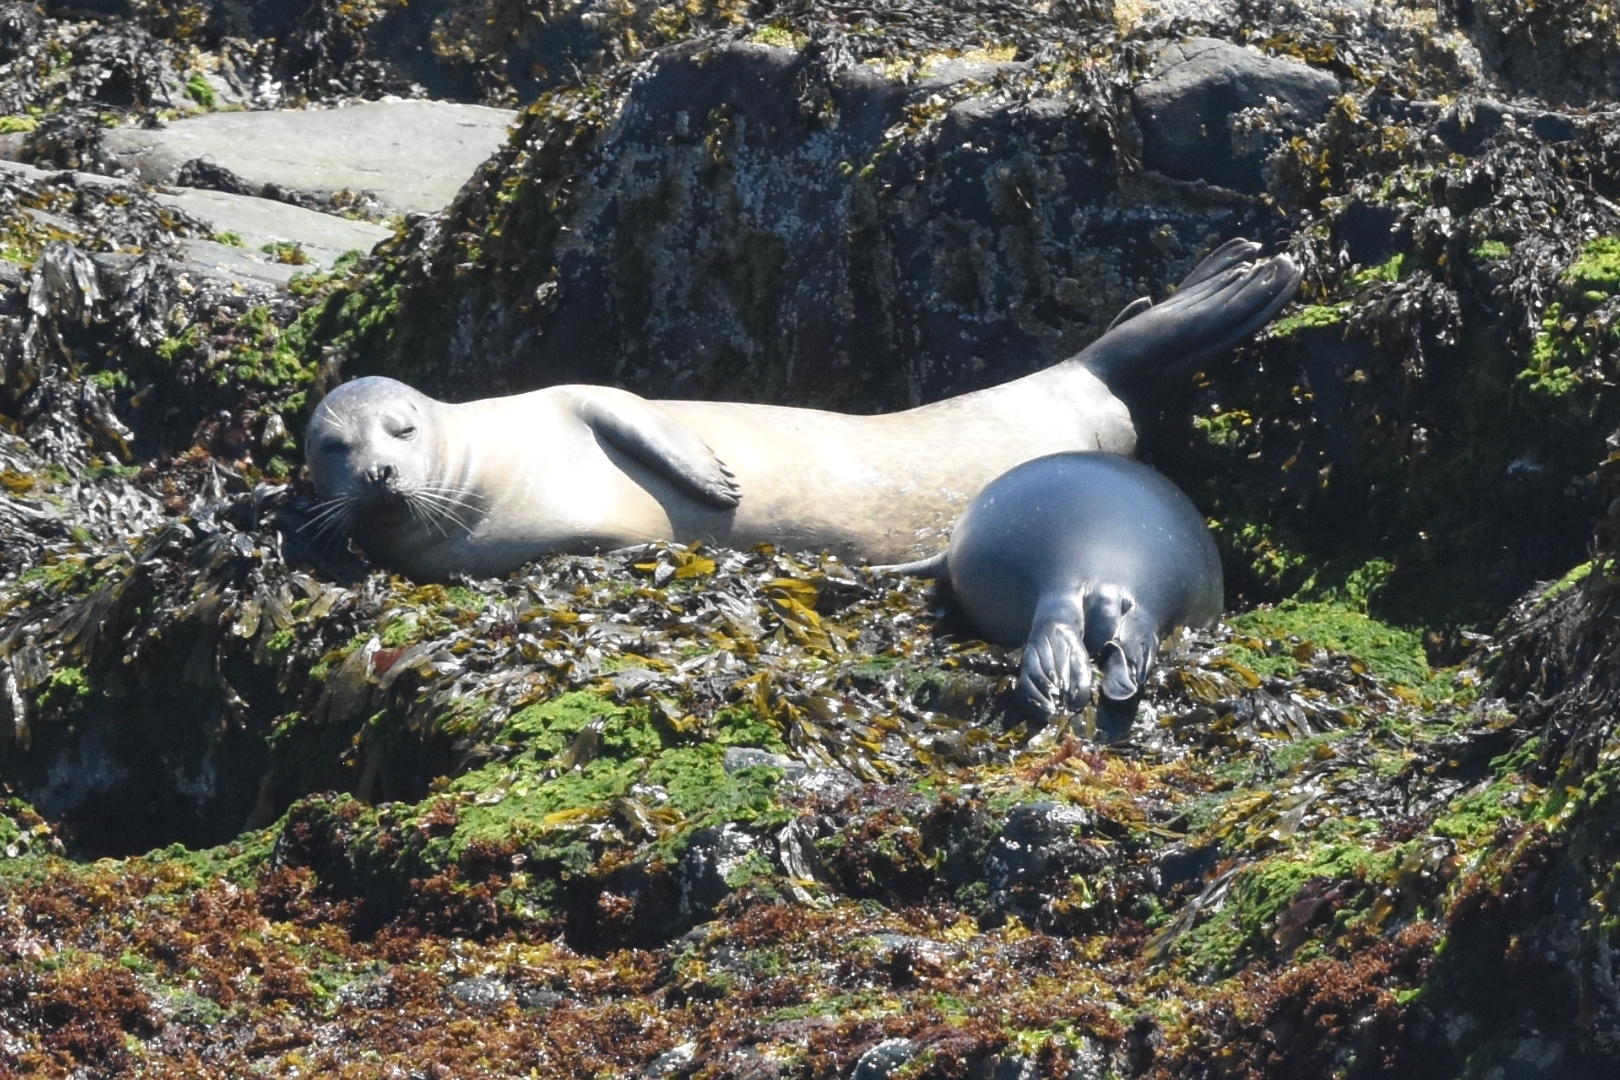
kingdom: Animalia
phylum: Chordata
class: Mammalia
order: Carnivora
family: Phocidae
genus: Phoca
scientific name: Phoca vitulina
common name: Harbor seal
